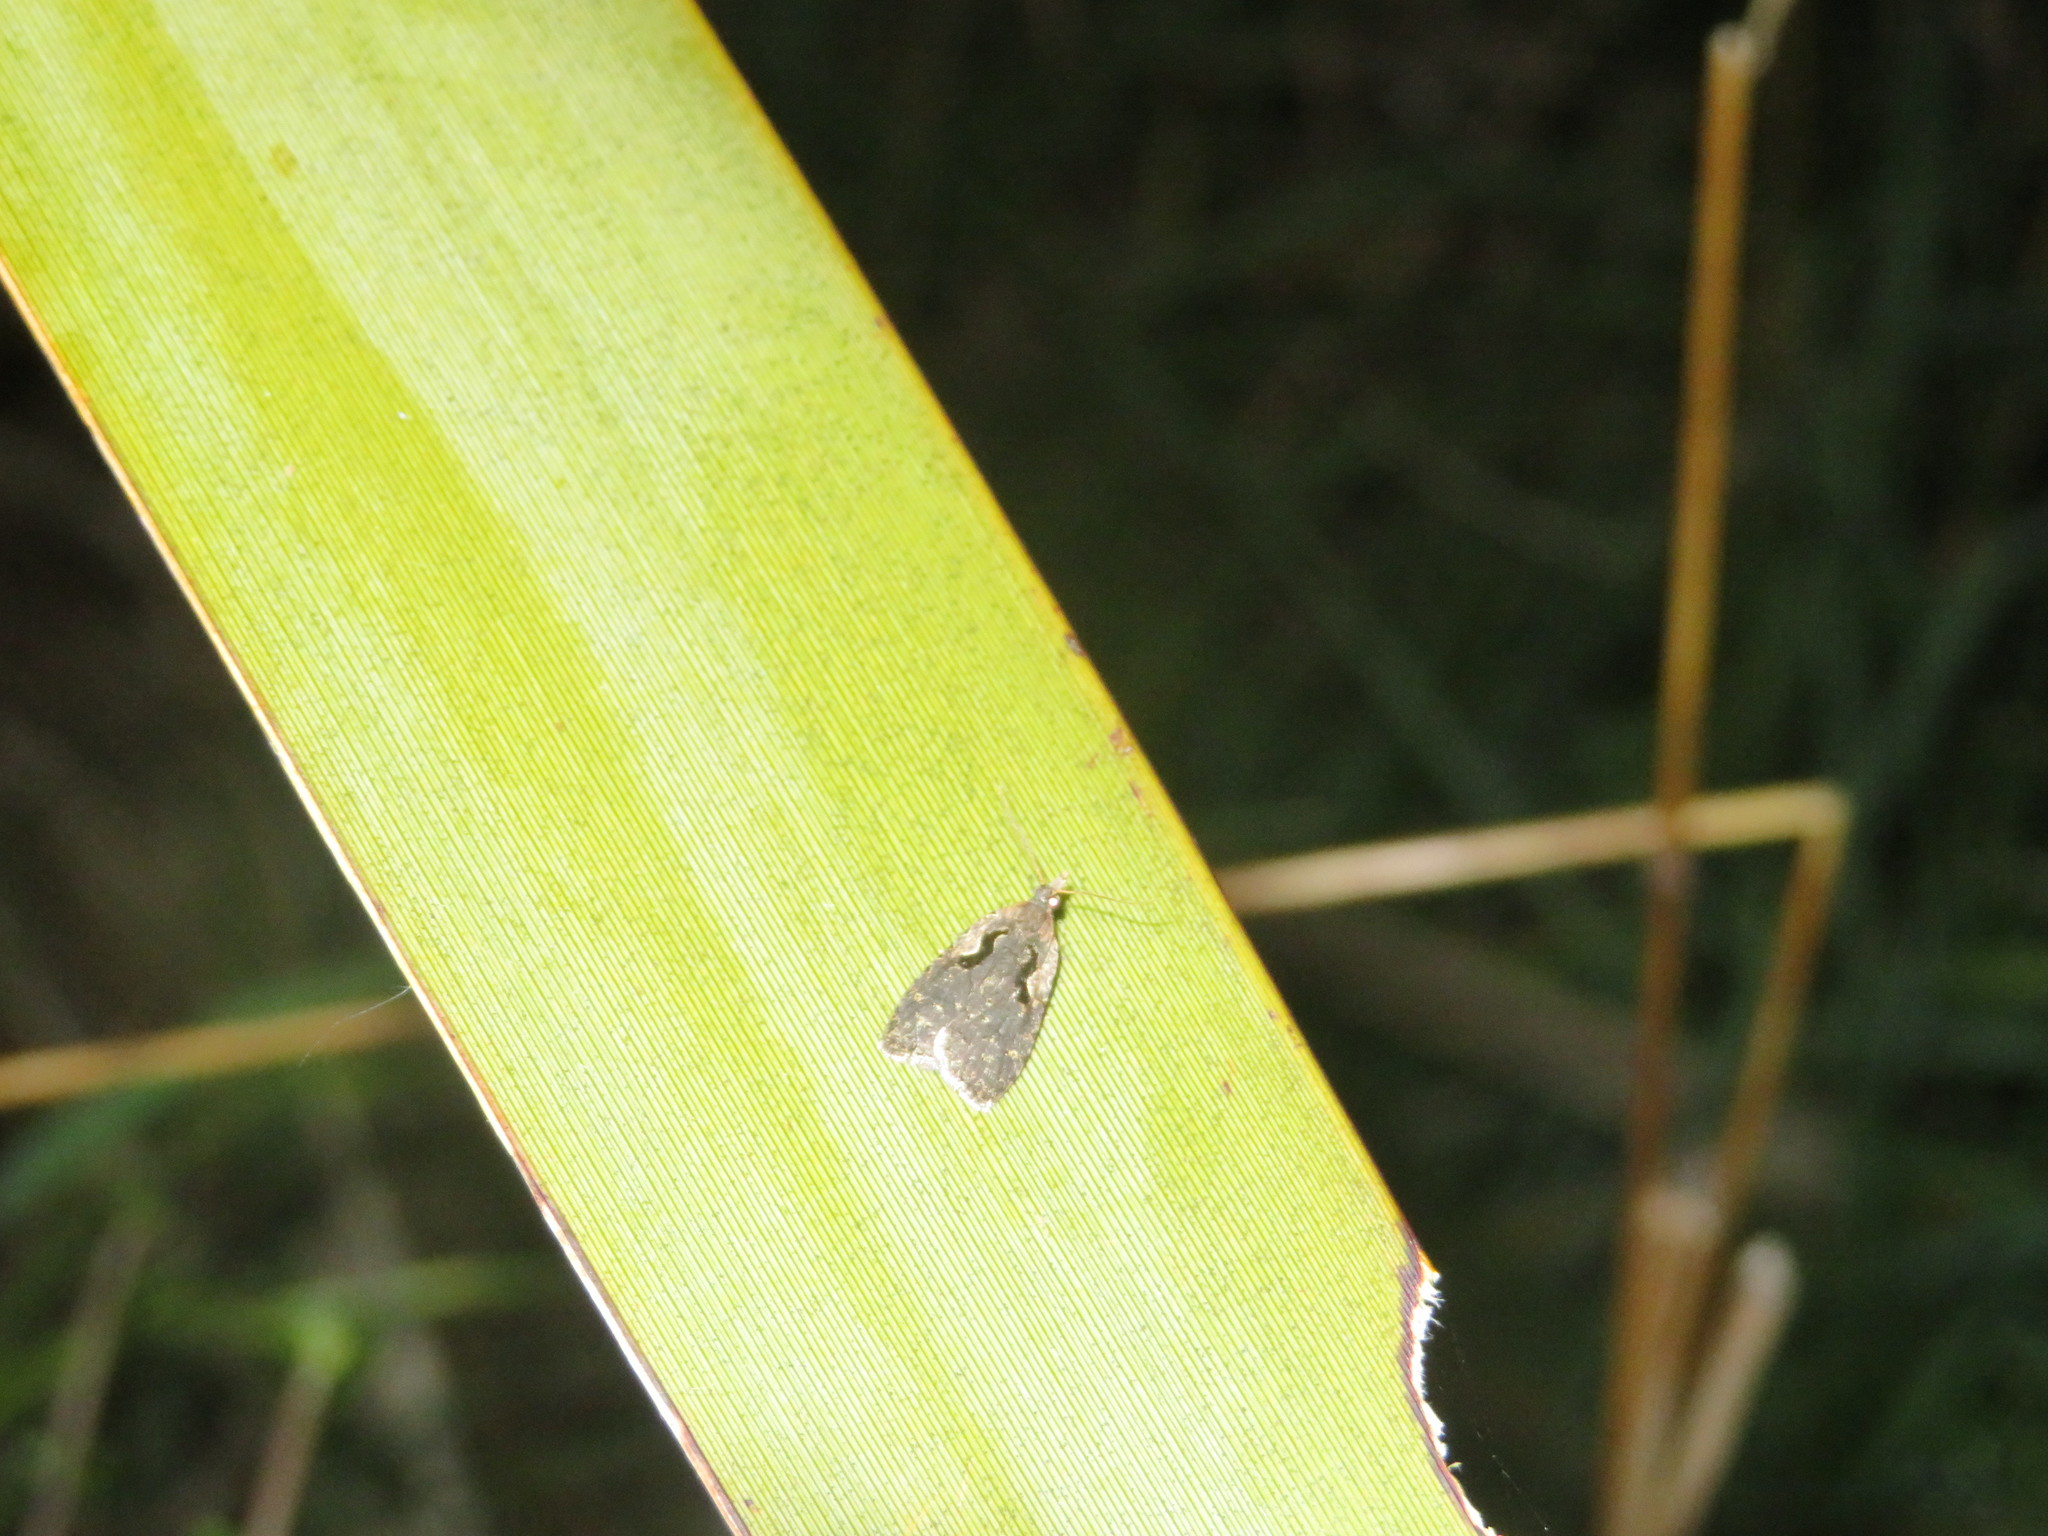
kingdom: Animalia
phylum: Arthropoda
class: Insecta
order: Lepidoptera
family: Tortricidae
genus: Cnephasia
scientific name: Cnephasia jactatana
